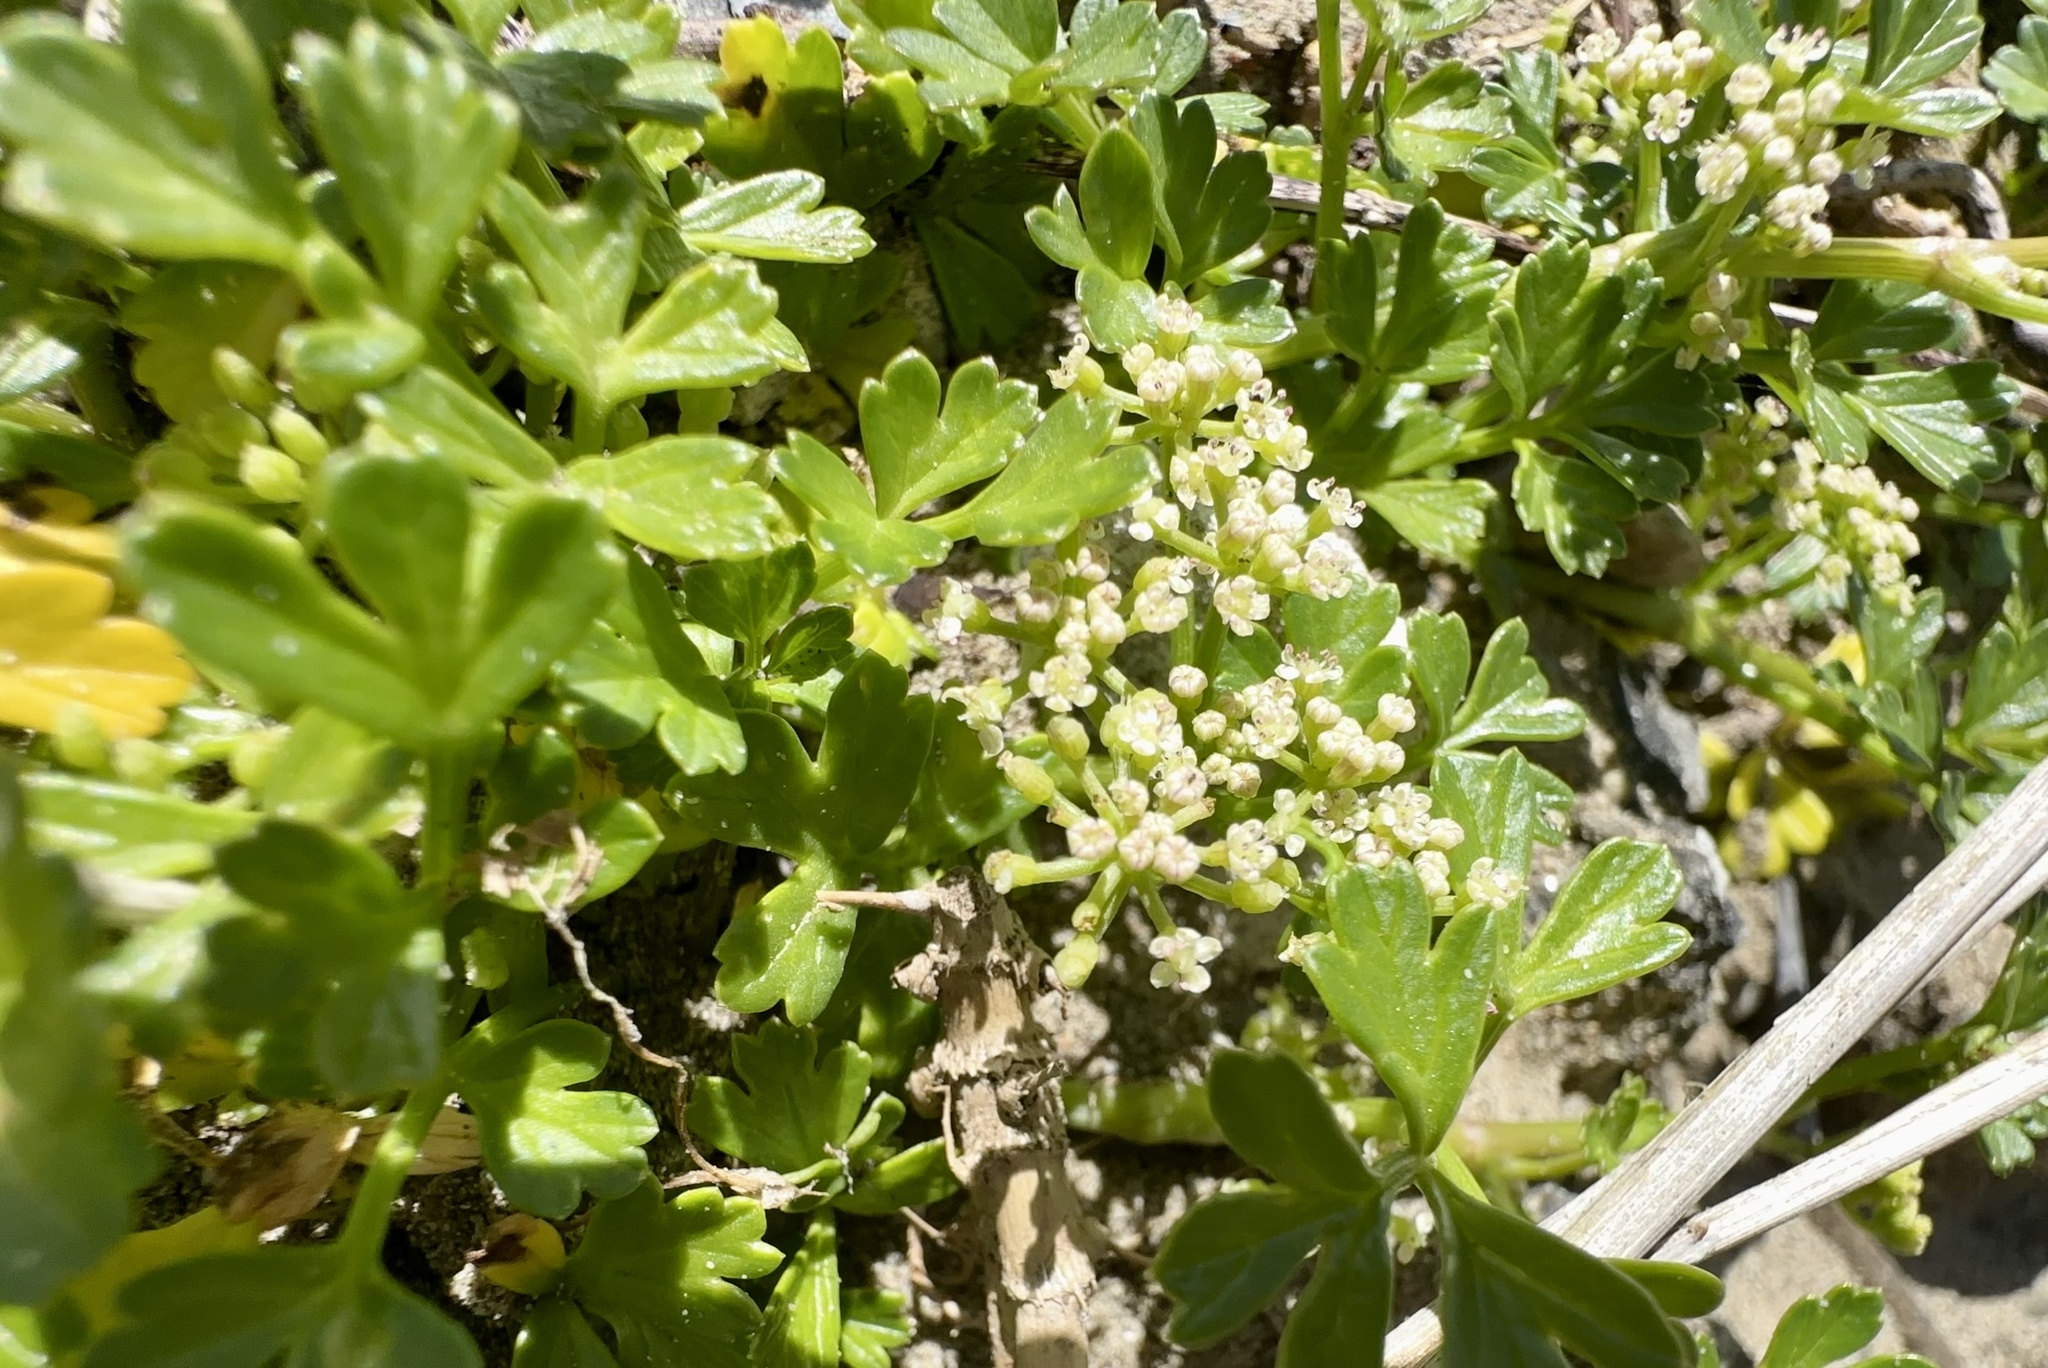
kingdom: Plantae
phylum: Tracheophyta
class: Magnoliopsida
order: Apiales
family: Apiaceae
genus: Apium
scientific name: Apium prostratum
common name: Prostrate marshwort
